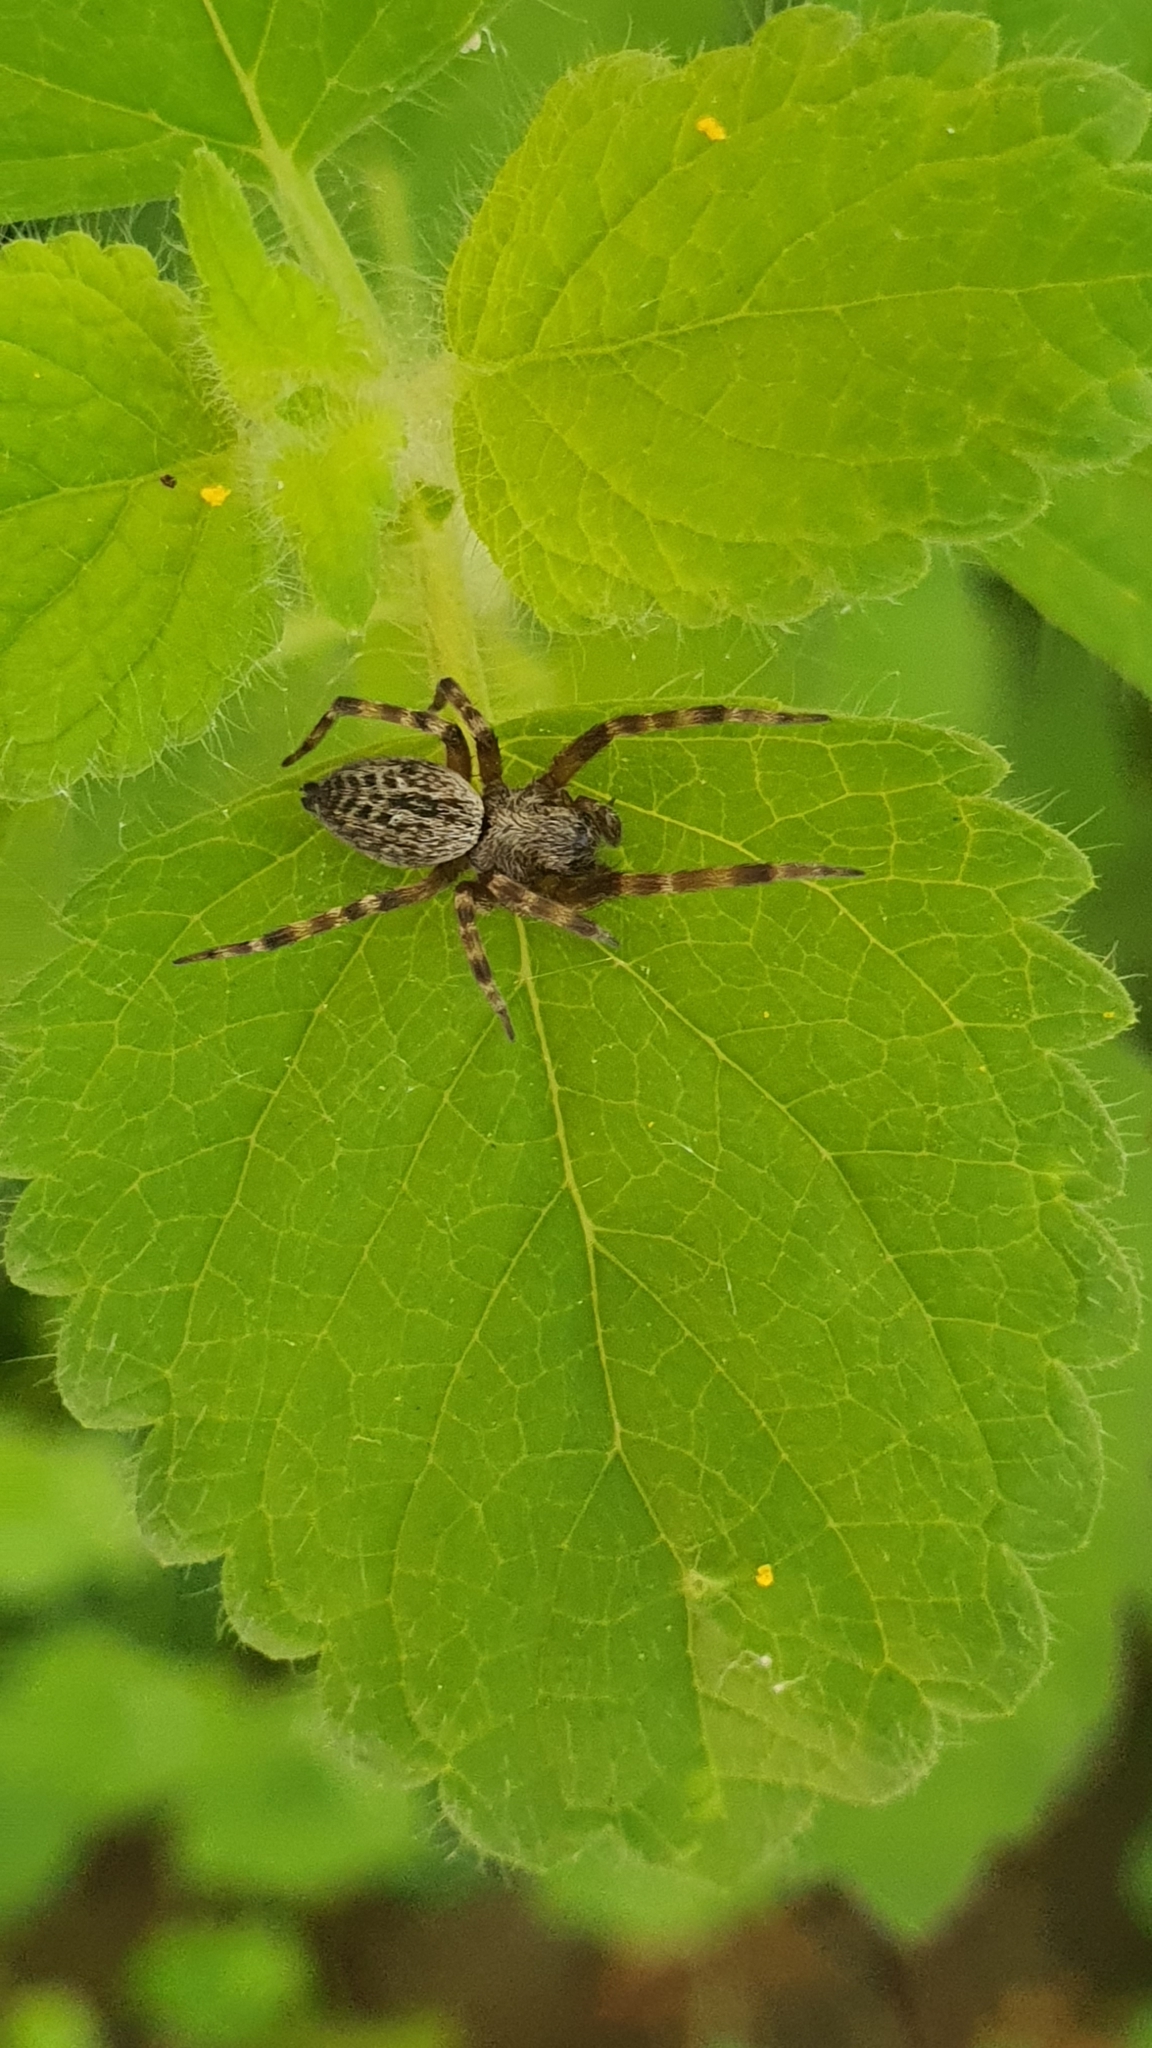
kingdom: Animalia
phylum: Arthropoda
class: Arachnida
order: Araneae
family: Desidae
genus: Badumna
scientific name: Badumna longinqua
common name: Gray house spider
